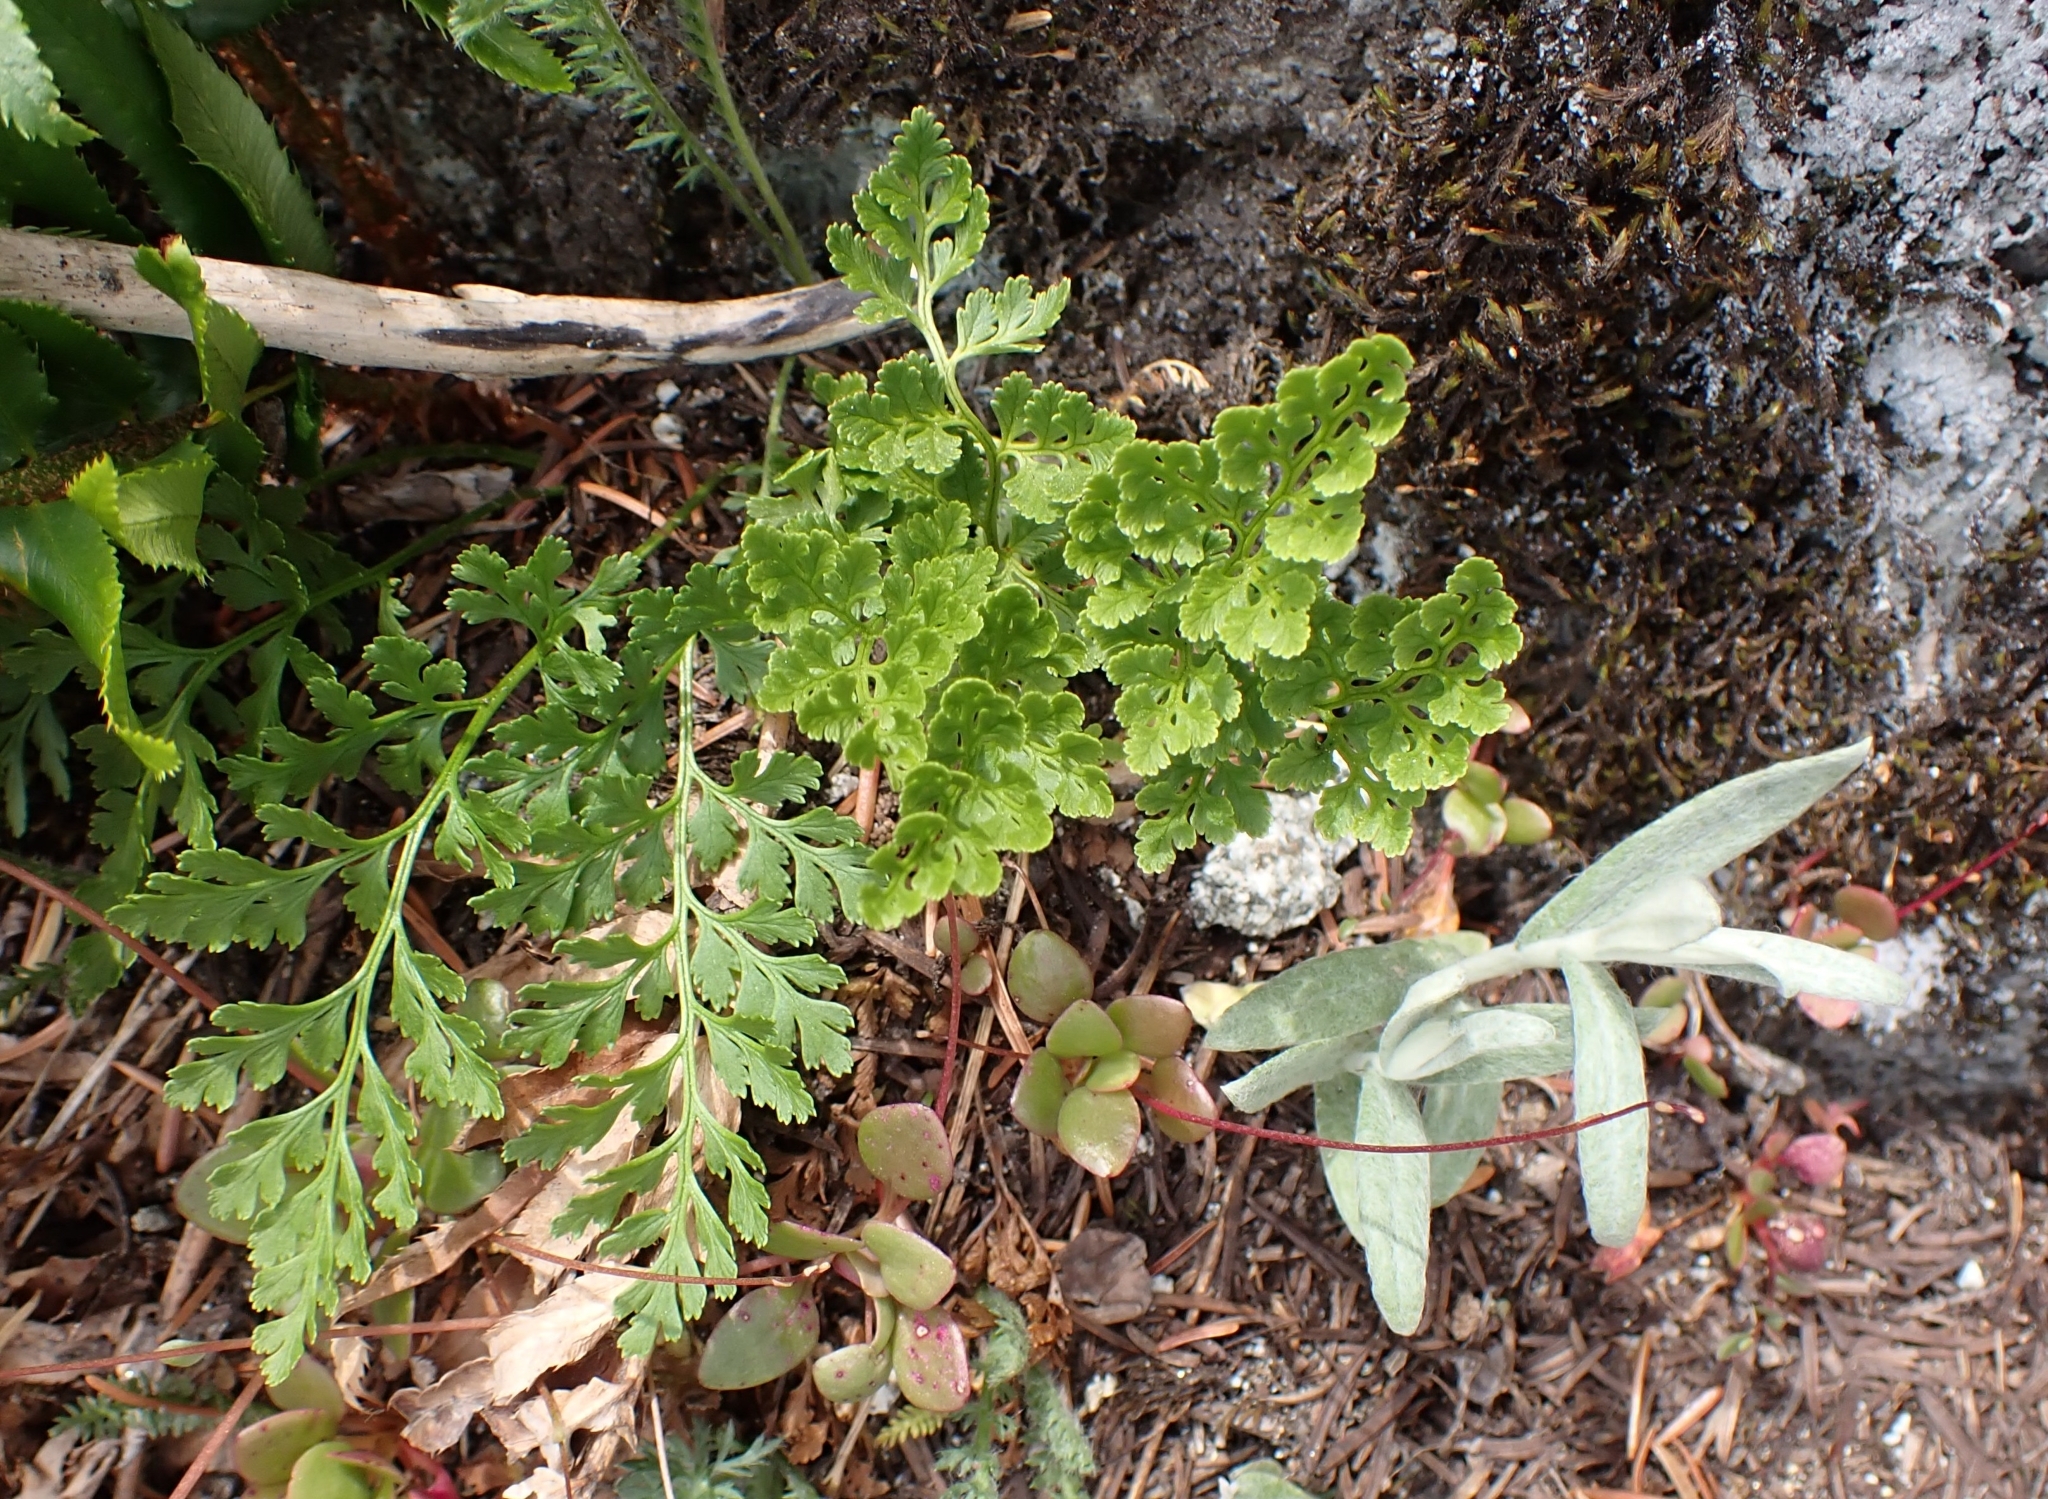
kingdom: Plantae
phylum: Tracheophyta
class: Polypodiopsida
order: Polypodiales
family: Pteridaceae
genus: Cryptogramma
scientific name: Cryptogramma acrostichoides
